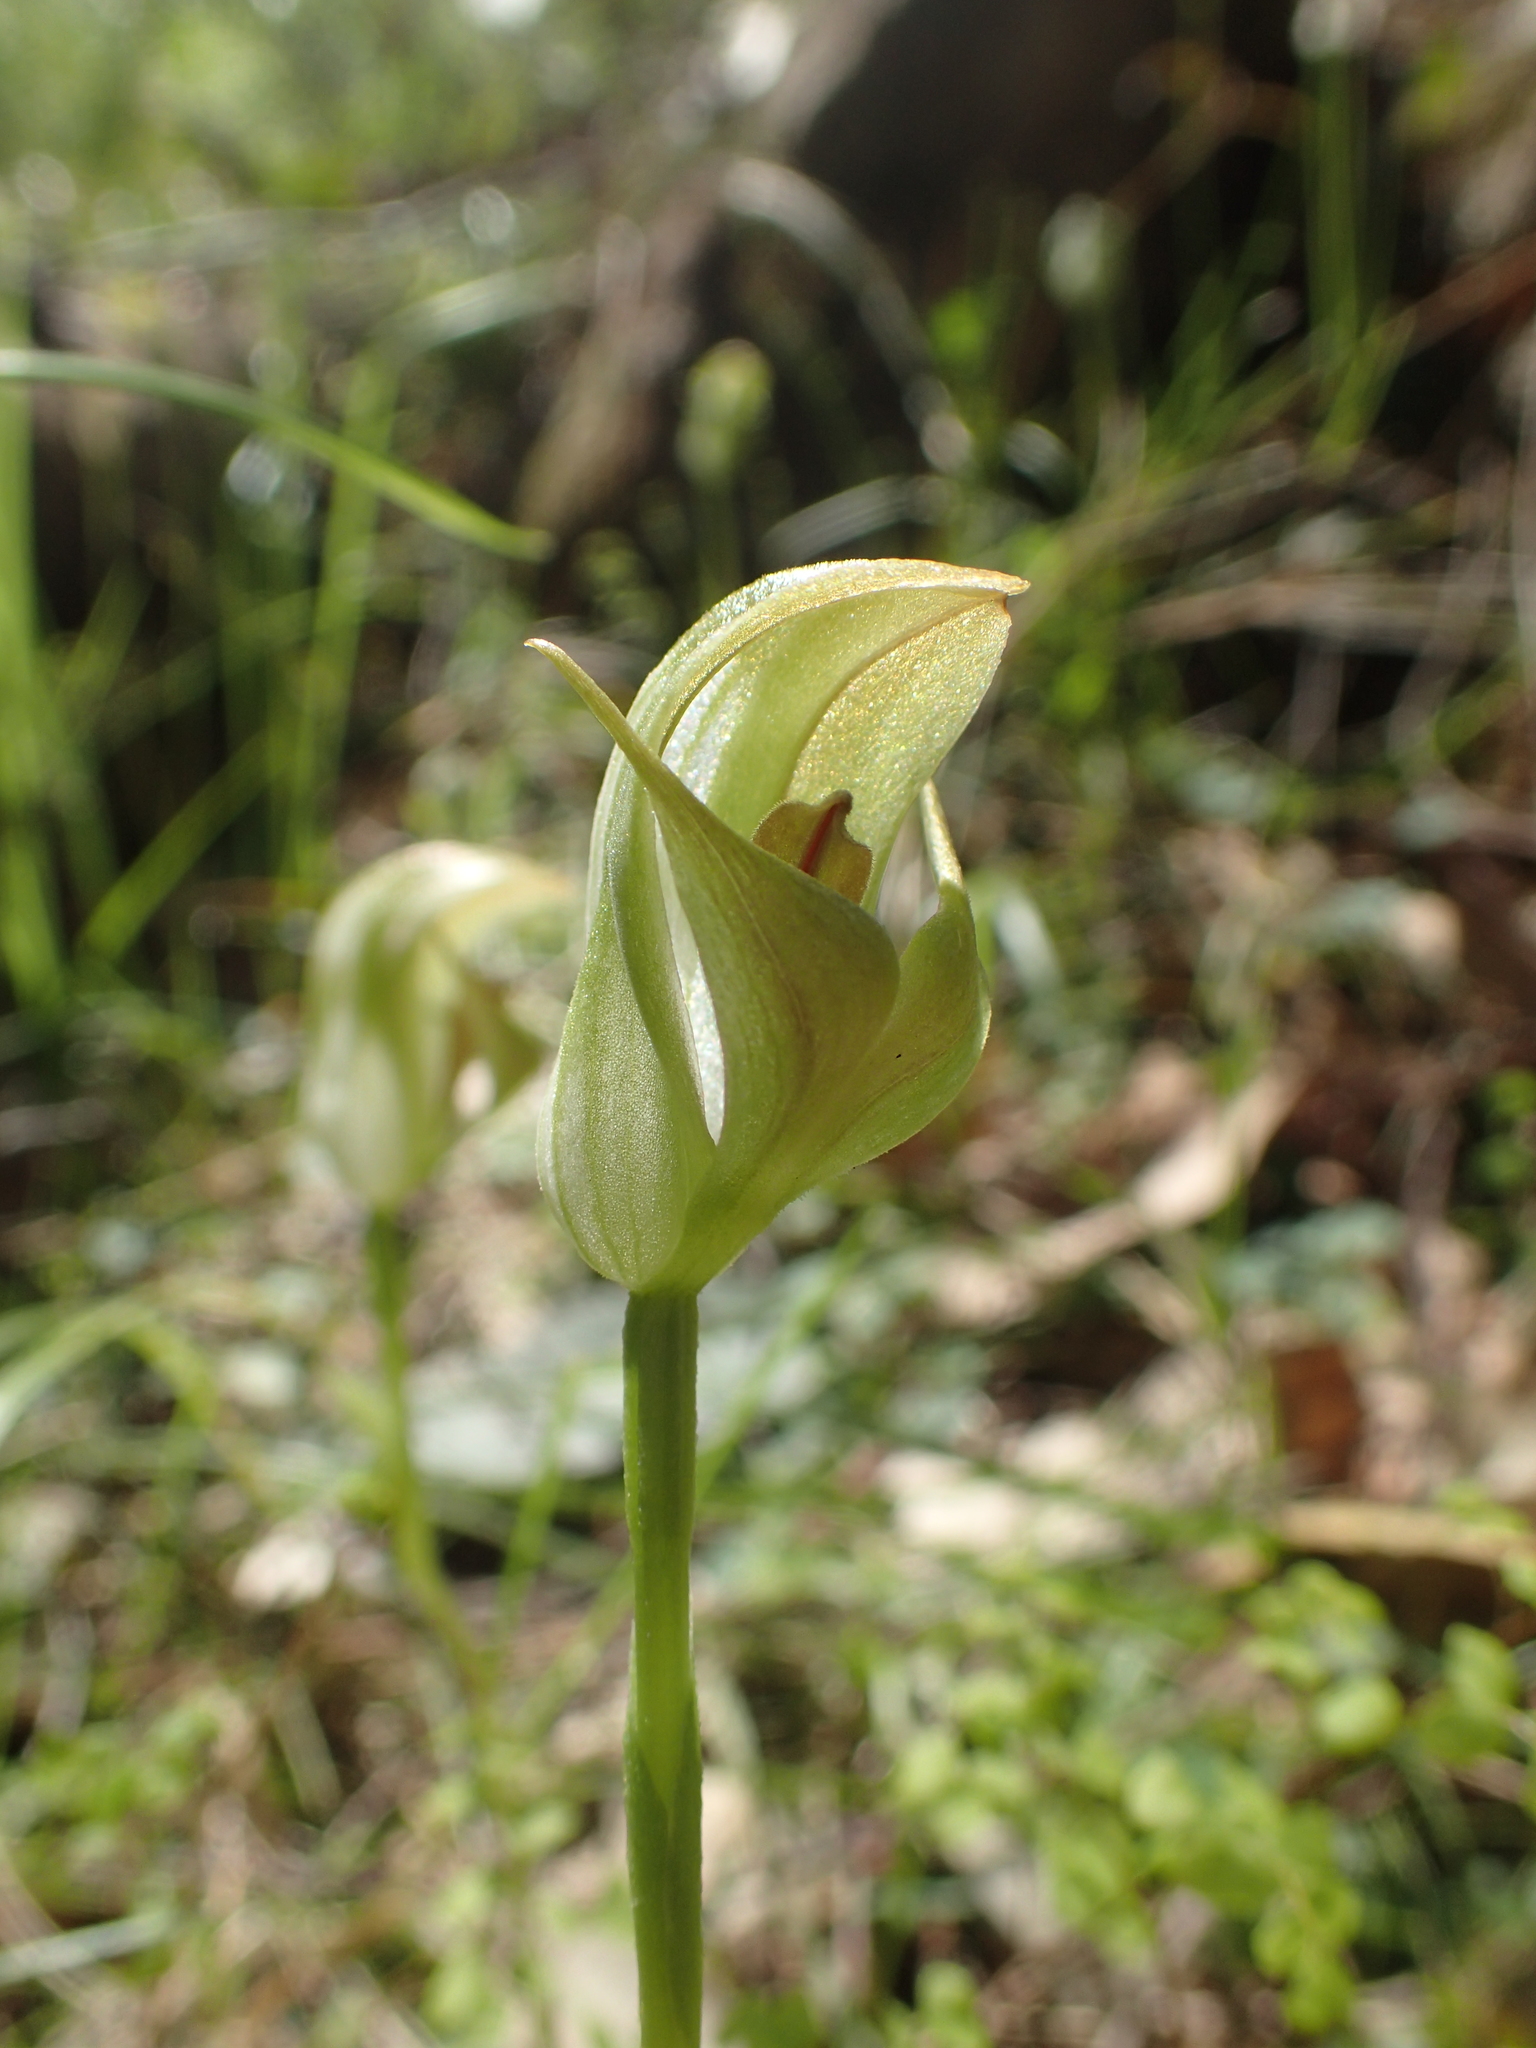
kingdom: Plantae
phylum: Tracheophyta
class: Liliopsida
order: Asparagales
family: Orchidaceae
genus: Pterostylis
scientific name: Pterostylis curta
